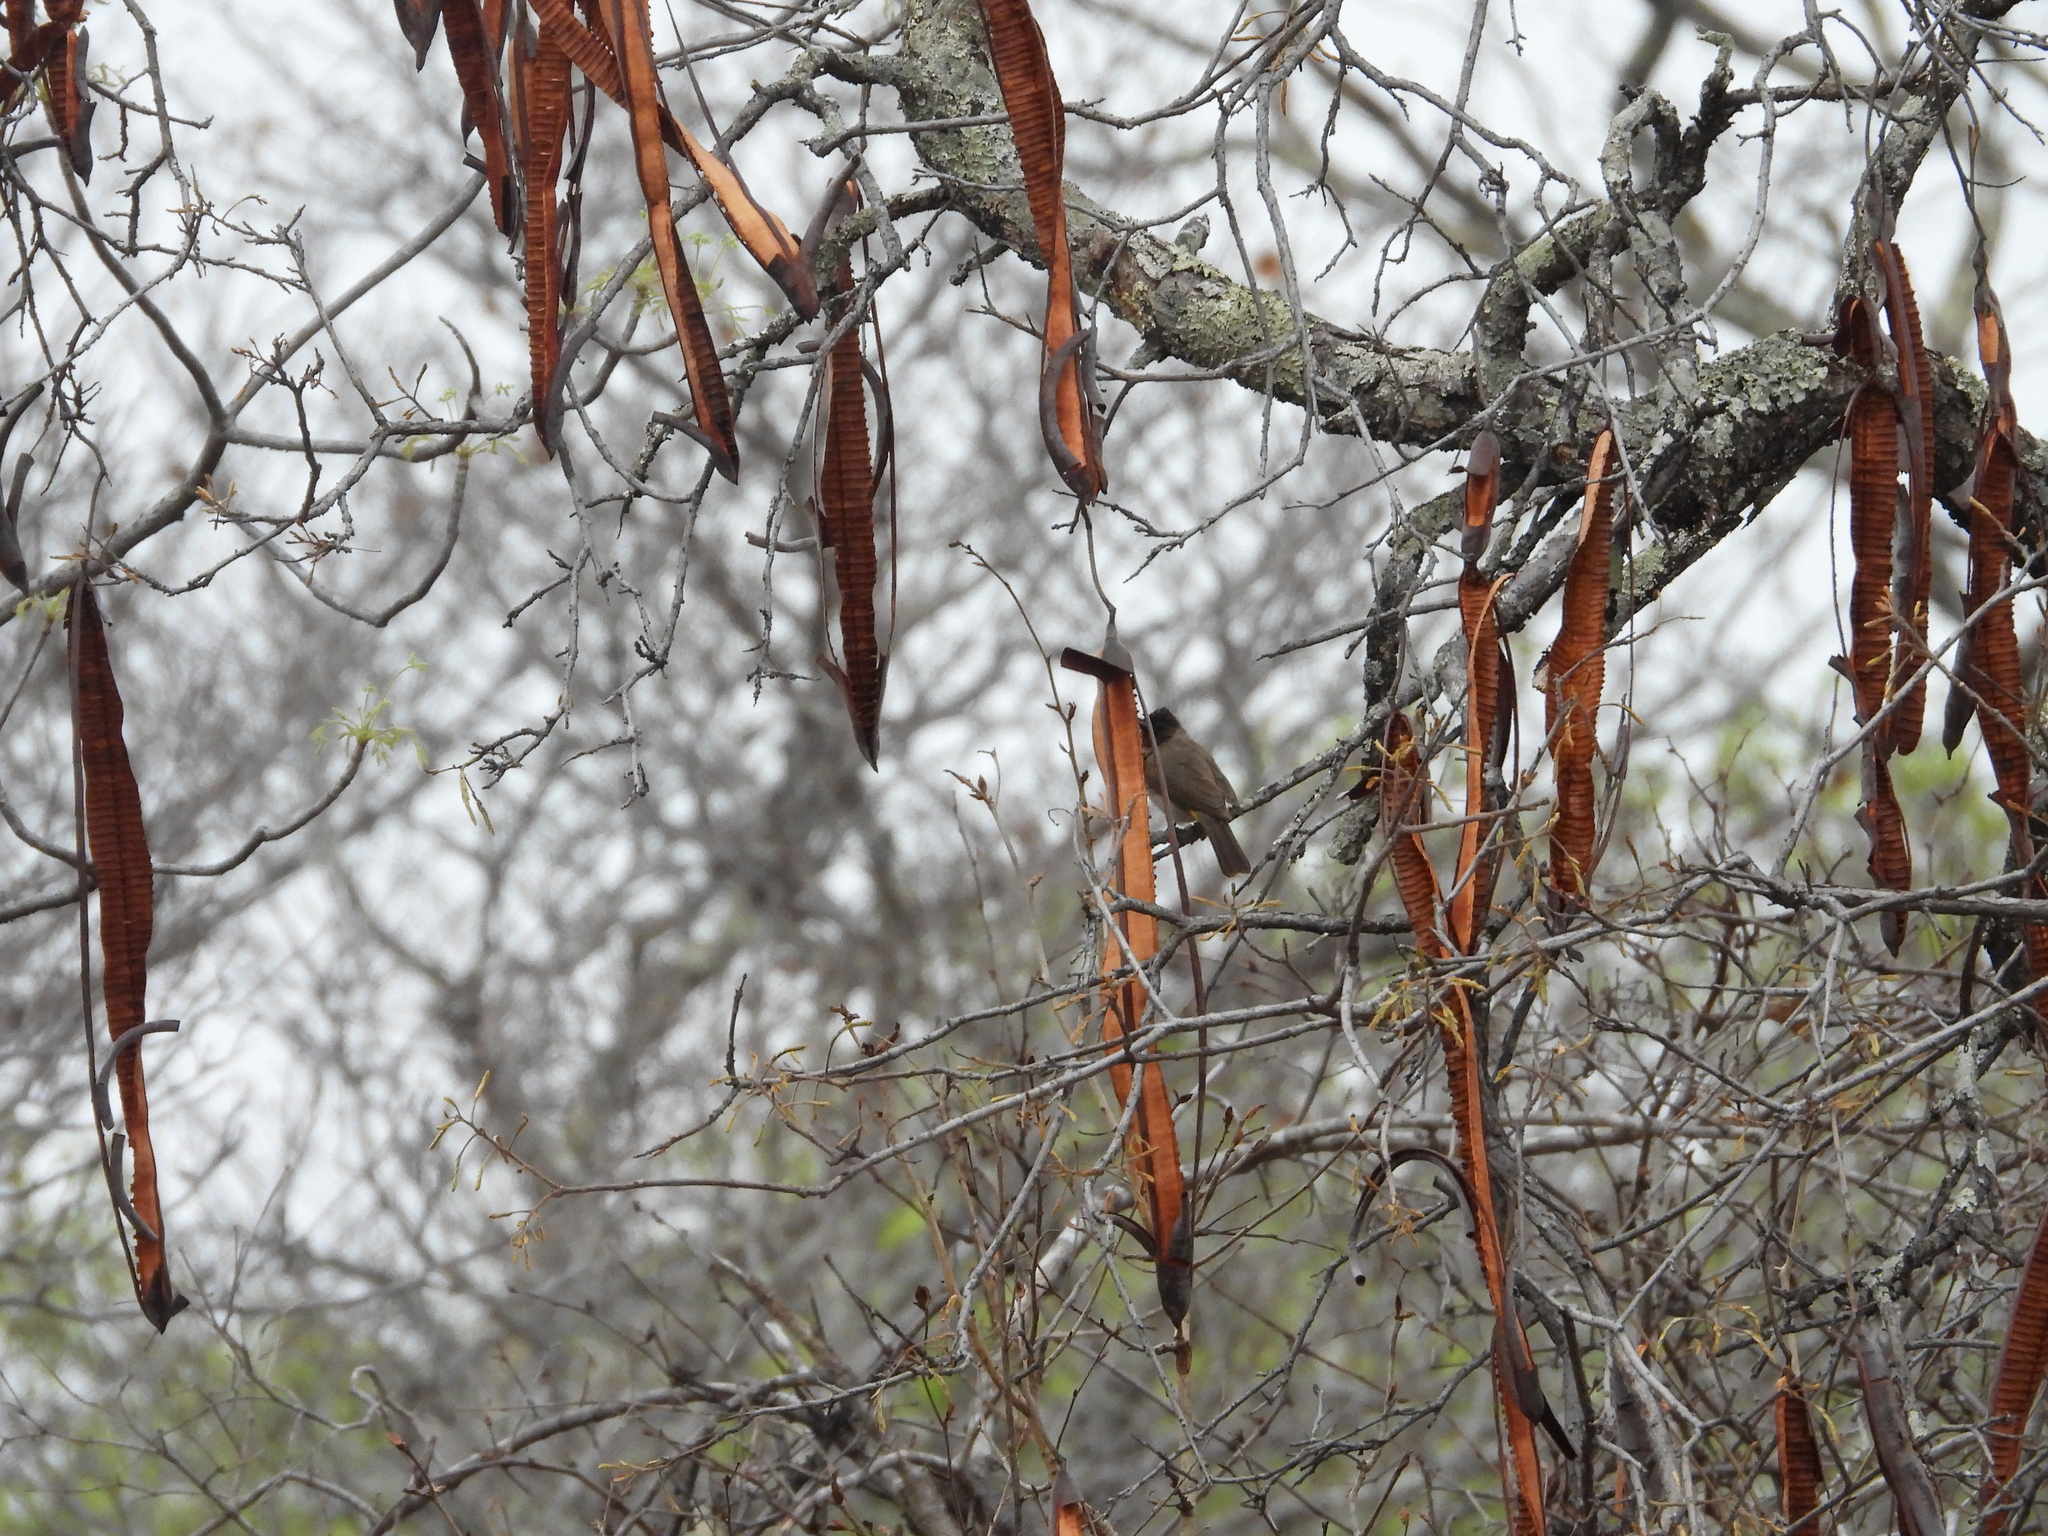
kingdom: Animalia
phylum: Chordata
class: Aves
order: Passeriformes
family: Pycnonotidae
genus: Pycnonotus
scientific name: Pycnonotus barbatus
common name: Common bulbul
